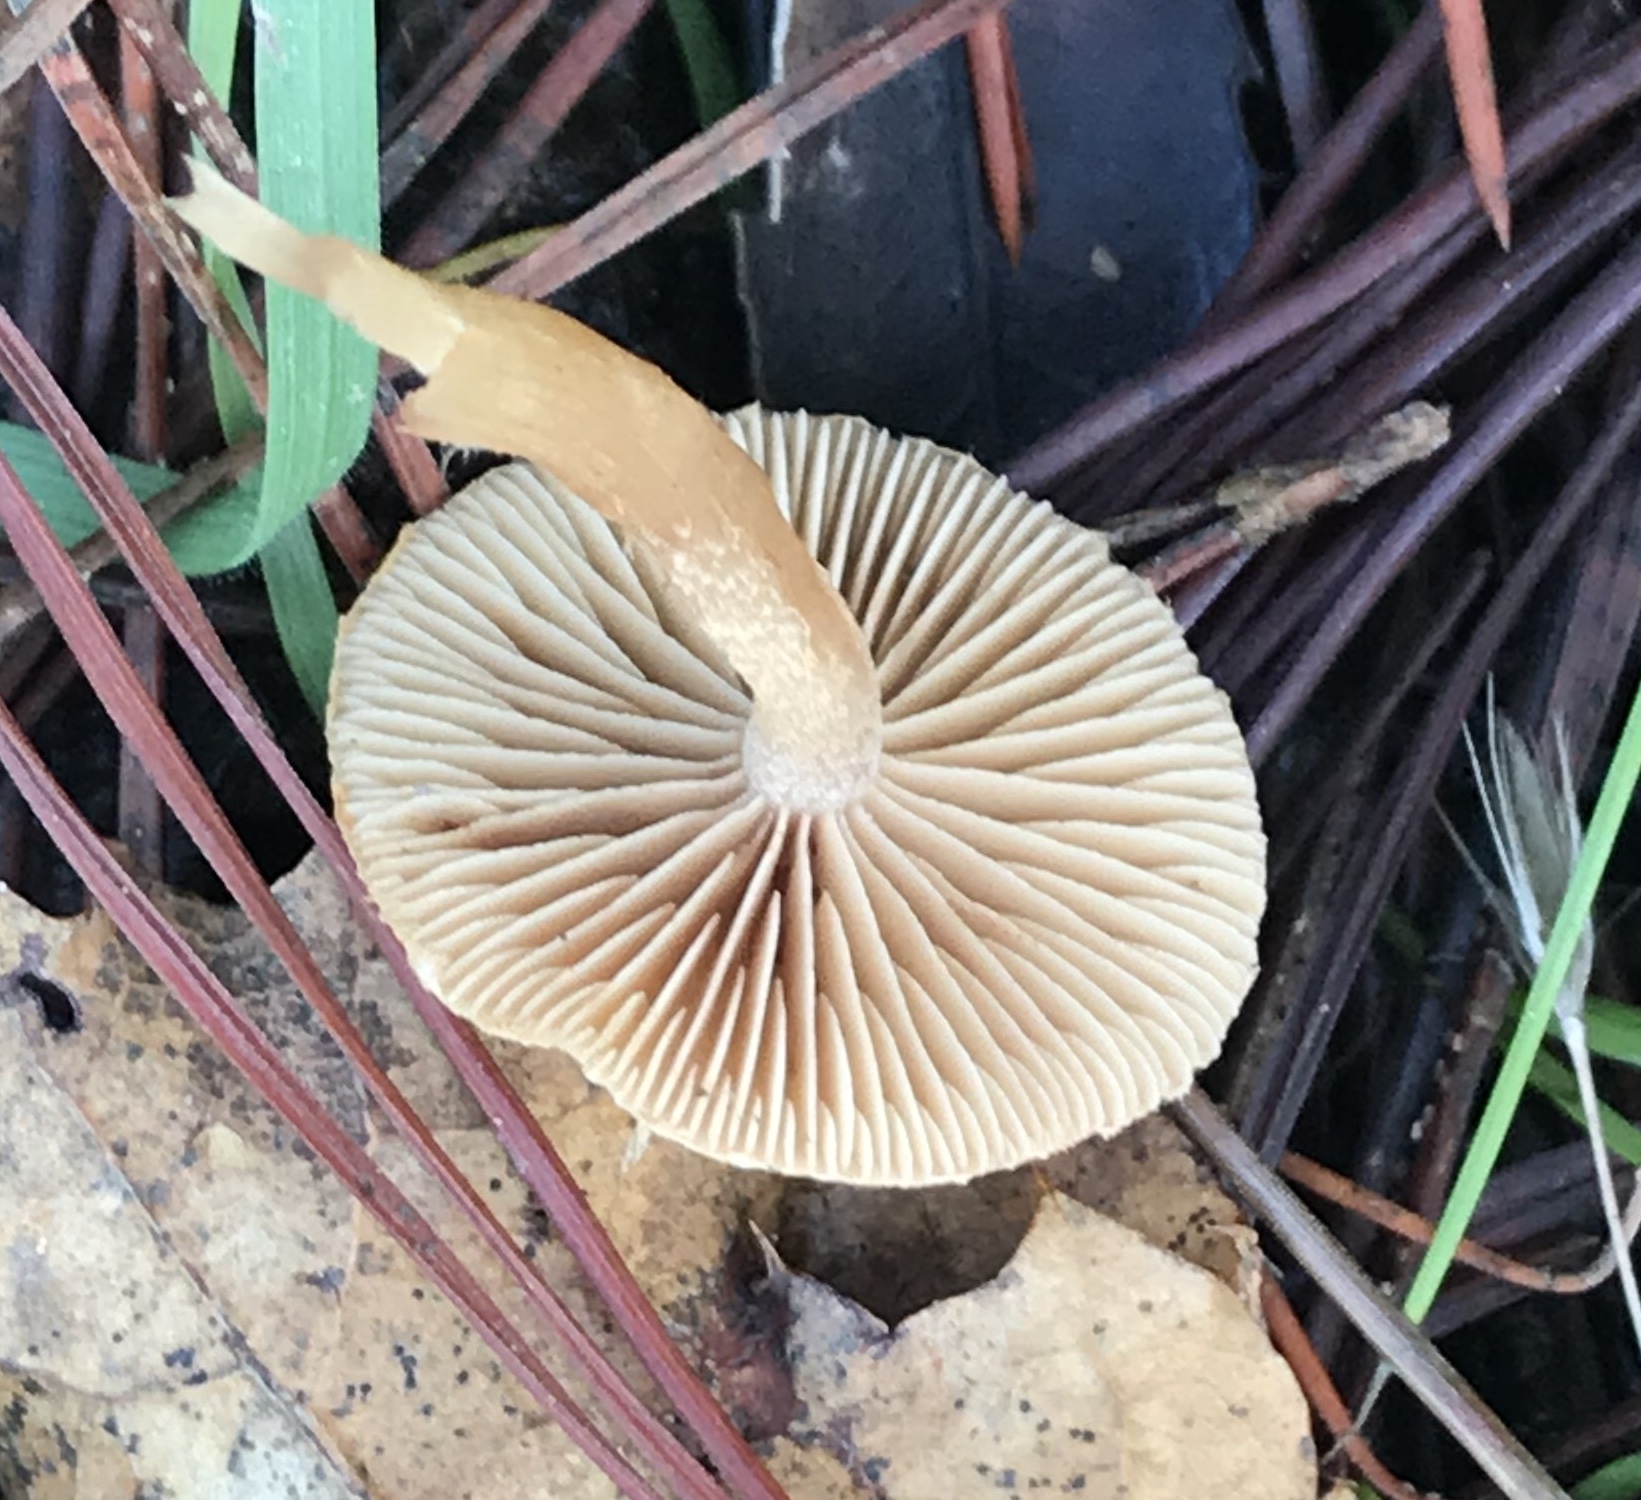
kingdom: Fungi
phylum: Basidiomycota
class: Agaricomycetes
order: Agaricales
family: Tubariaceae
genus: Tubaria
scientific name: Tubaria furfuracea
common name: Scurfy twiglet
